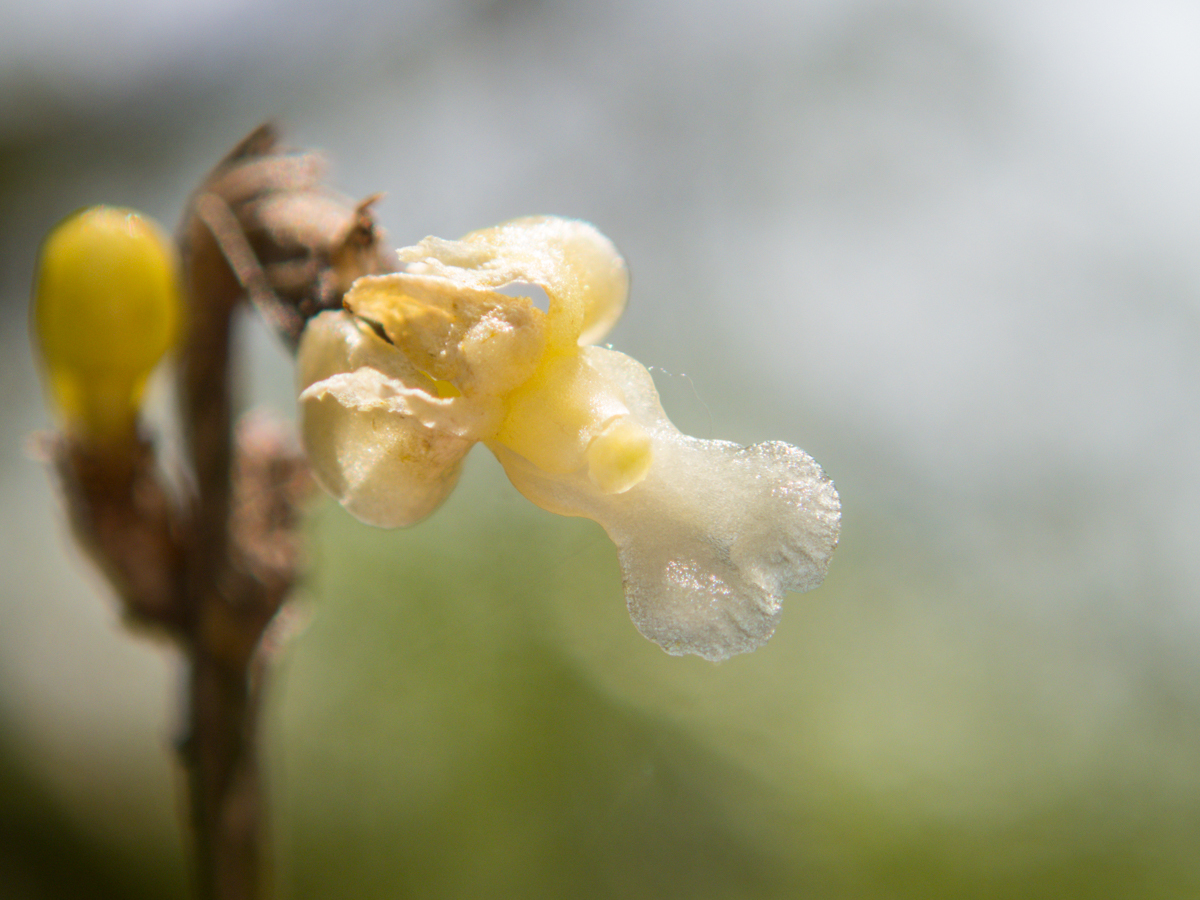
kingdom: Plantae
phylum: Tracheophyta
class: Liliopsida
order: Asparagales
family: Orchidaceae
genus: Dendrobium
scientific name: Dendrobium aloifolium
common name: Aloe-like dendrobium
